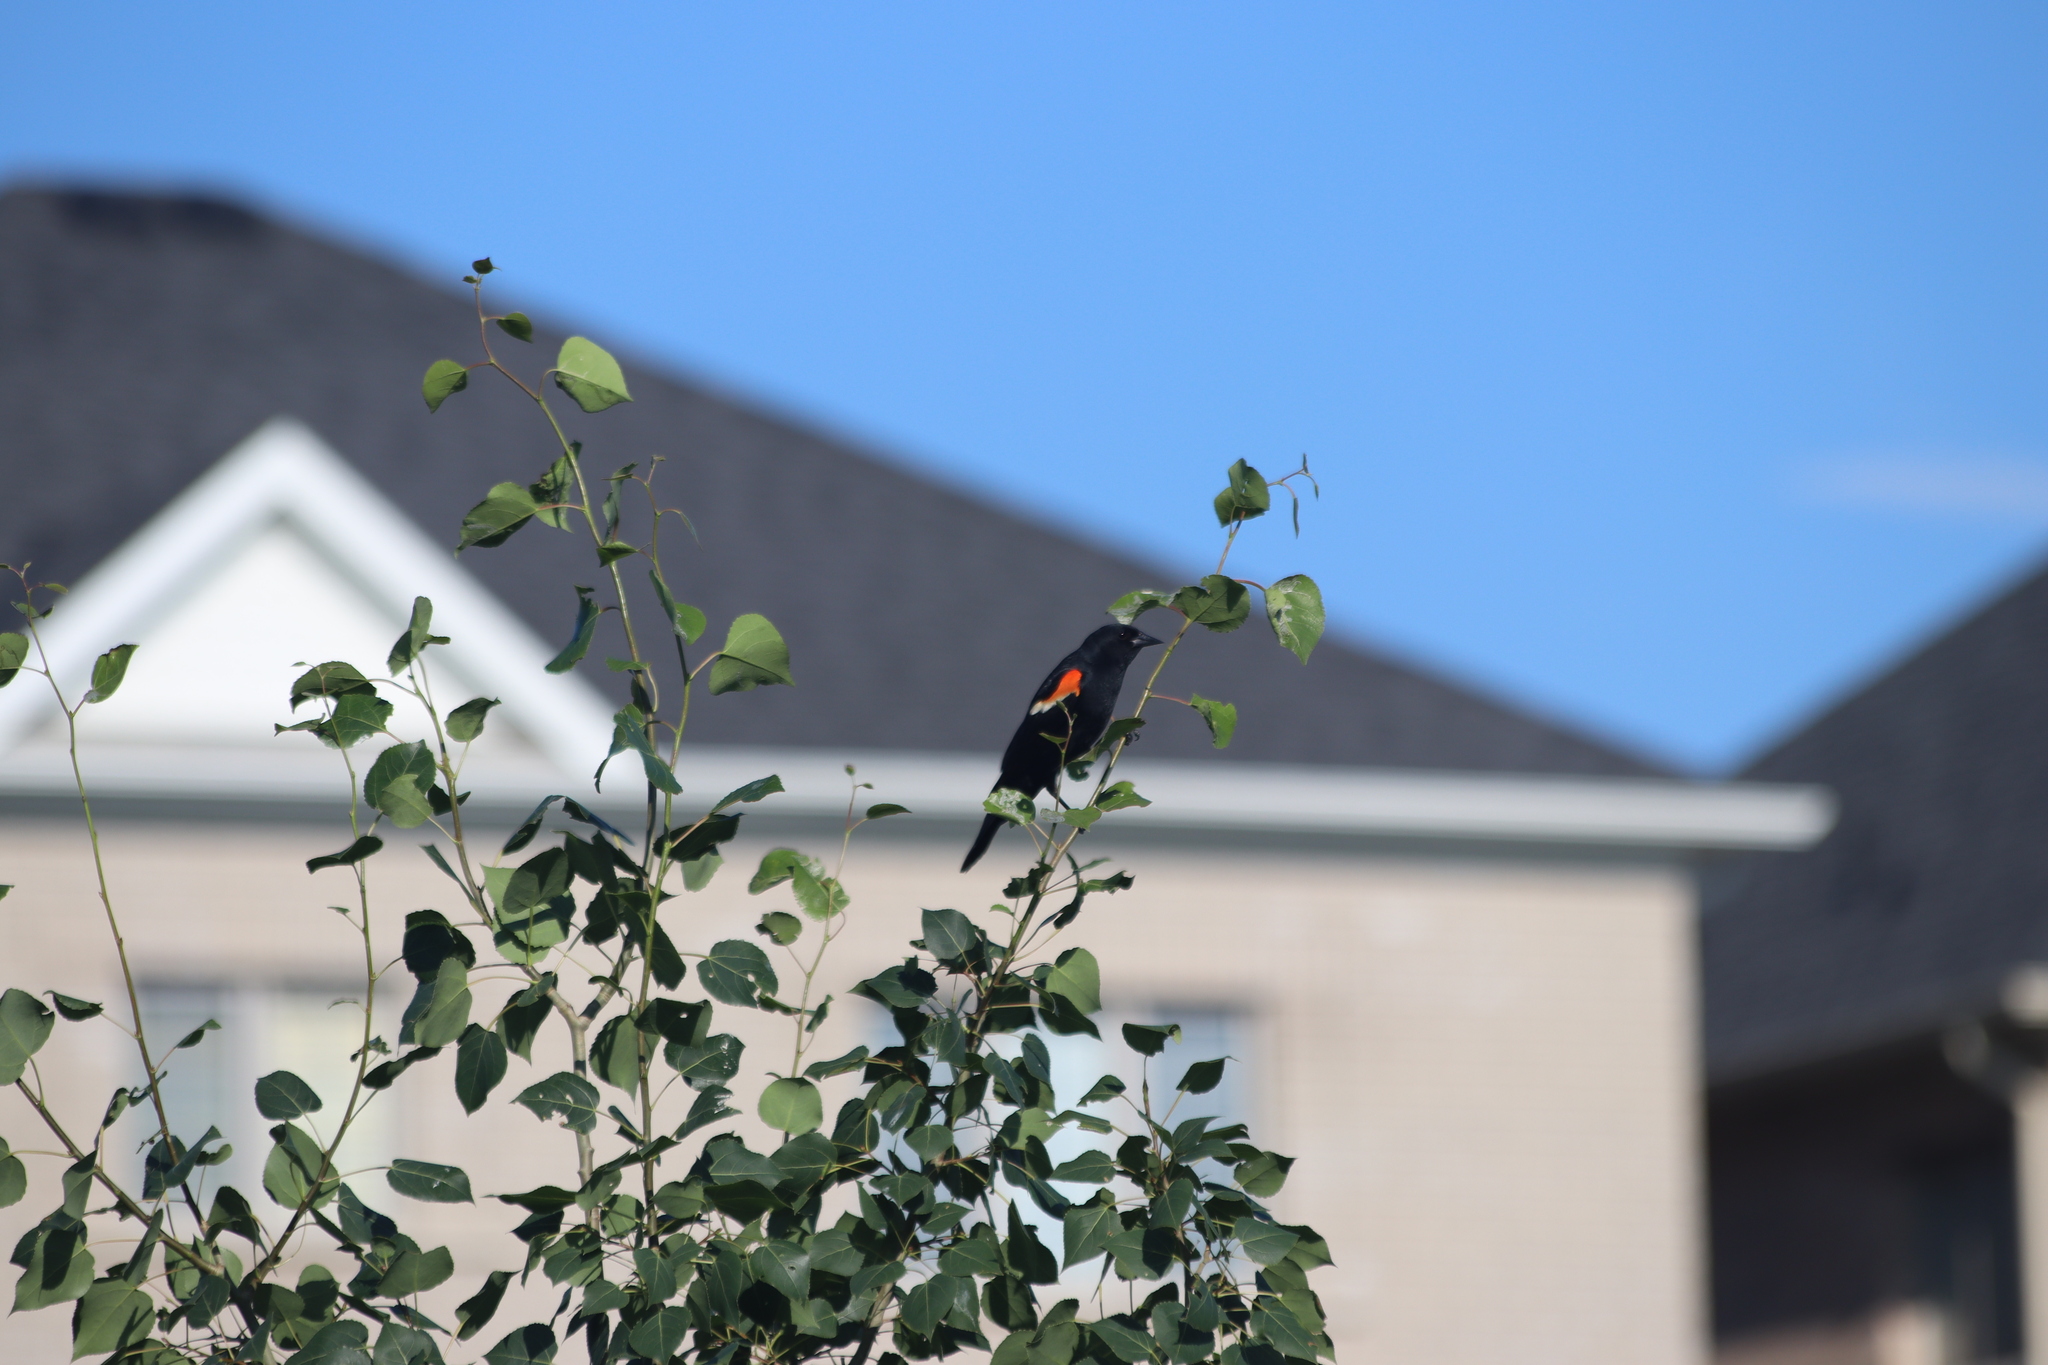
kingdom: Animalia
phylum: Chordata
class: Aves
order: Passeriformes
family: Icteridae
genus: Agelaius
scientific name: Agelaius phoeniceus
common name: Red-winged blackbird
